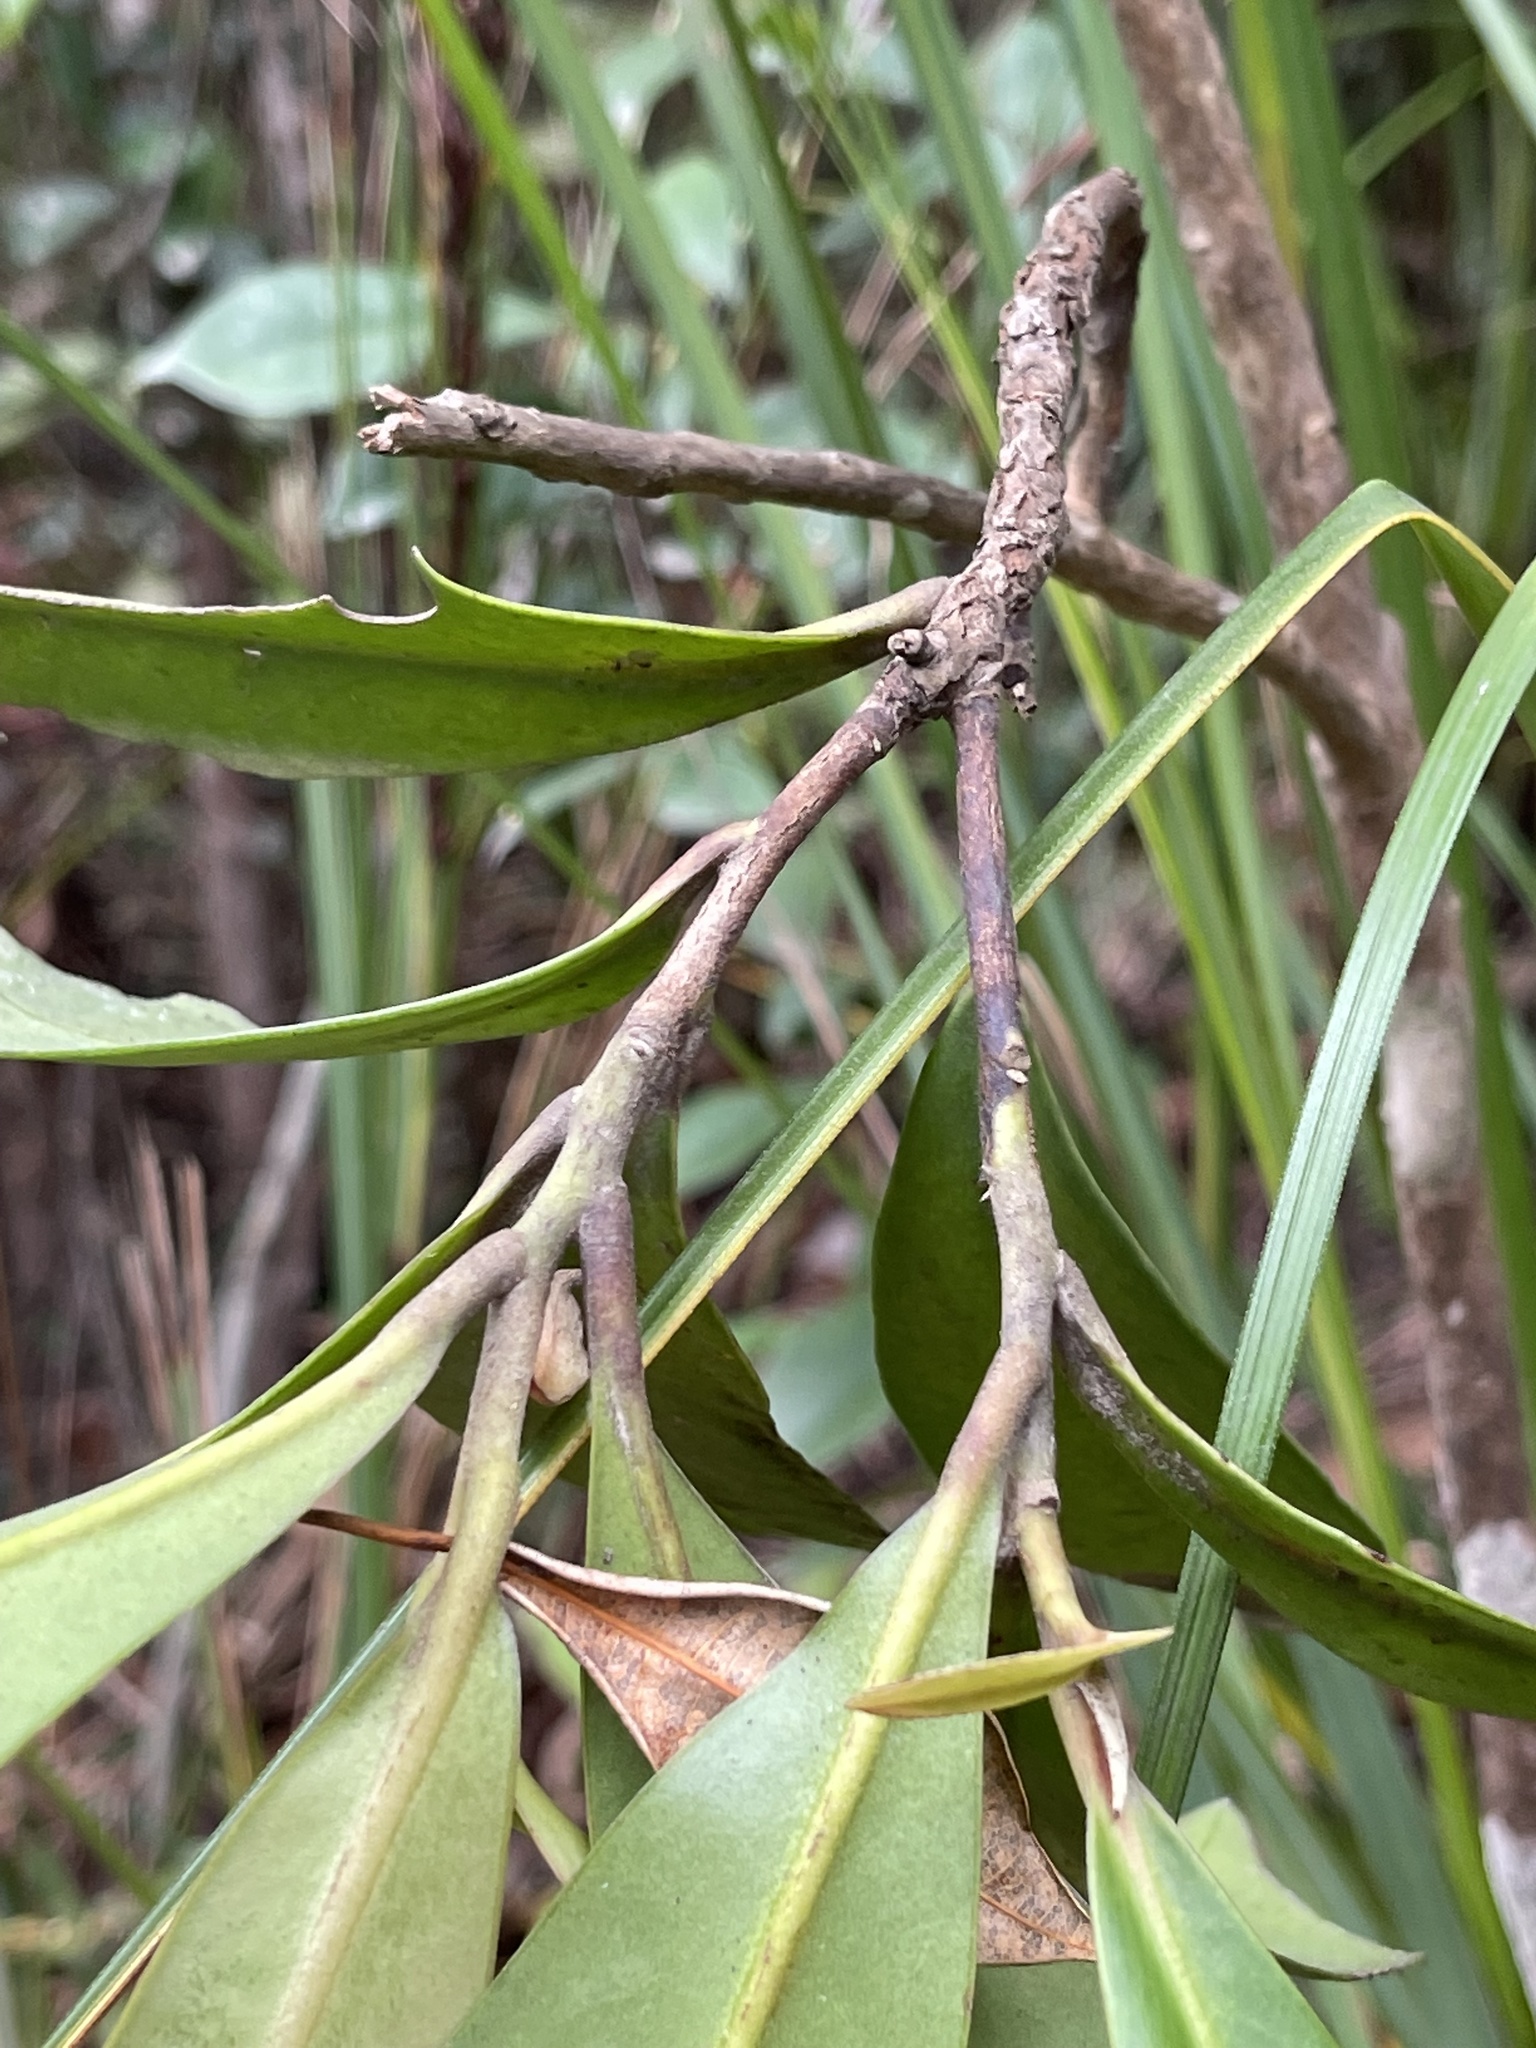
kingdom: Plantae
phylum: Tracheophyta
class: Magnoliopsida
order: Ericales
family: Theaceae
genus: Polyspora
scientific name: Polyspora axillaris
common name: Fried egg tree
